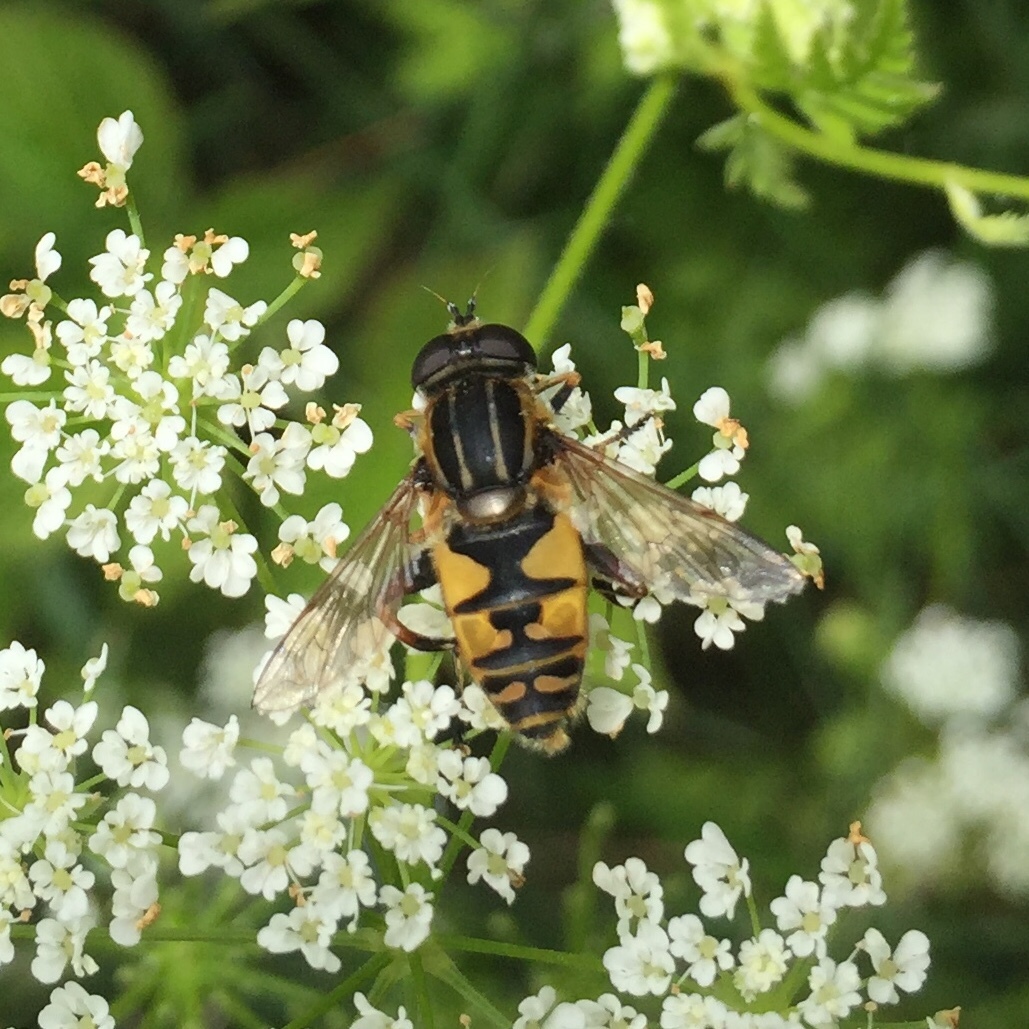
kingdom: Animalia
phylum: Arthropoda
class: Insecta
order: Diptera
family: Syrphidae
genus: Helophilus
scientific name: Helophilus pendulus
